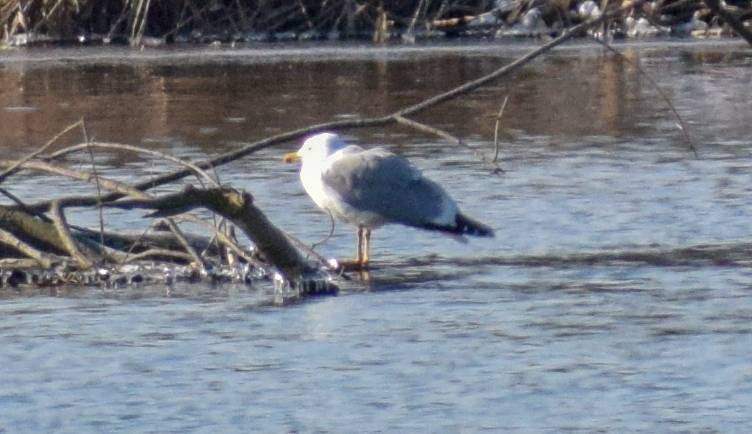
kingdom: Animalia
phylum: Chordata
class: Aves
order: Charadriiformes
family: Laridae
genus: Larus
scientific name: Larus michahellis
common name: Yellow-legged gull
